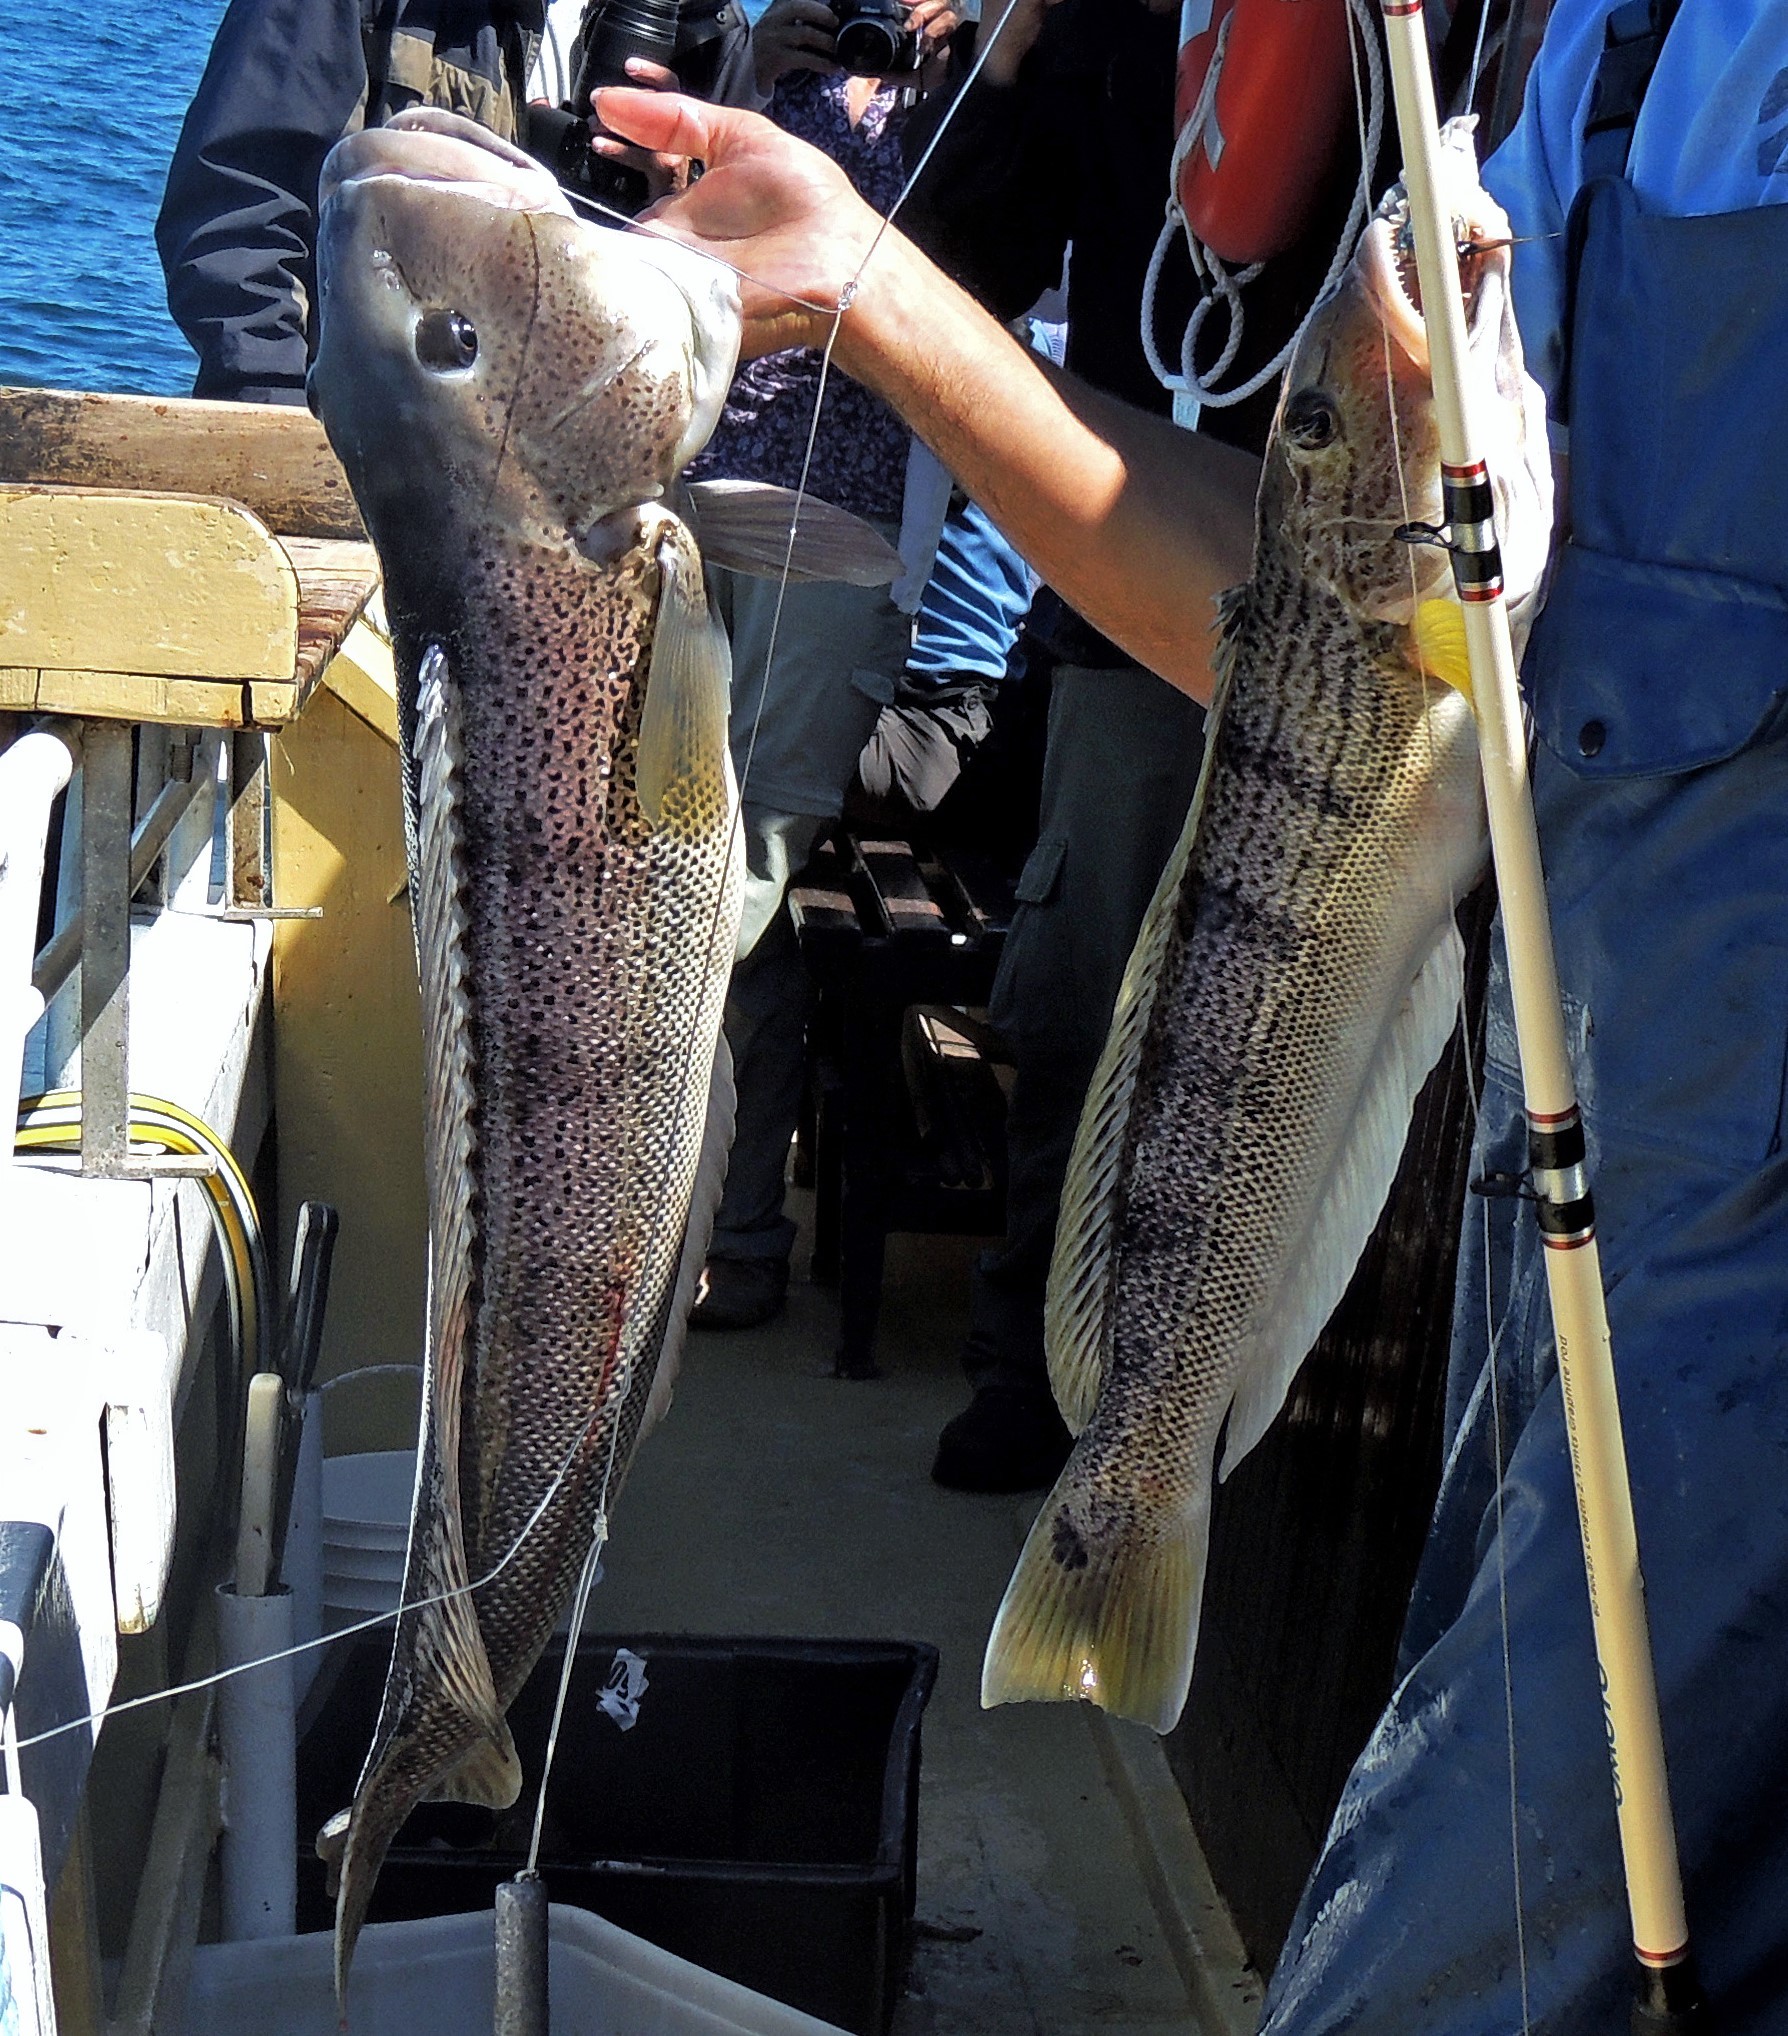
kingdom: Animalia
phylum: Chordata
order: Perciformes
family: Pinguipedidae
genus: Pseudopercis
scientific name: Pseudopercis semifasciata
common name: Argentinian sandperch
